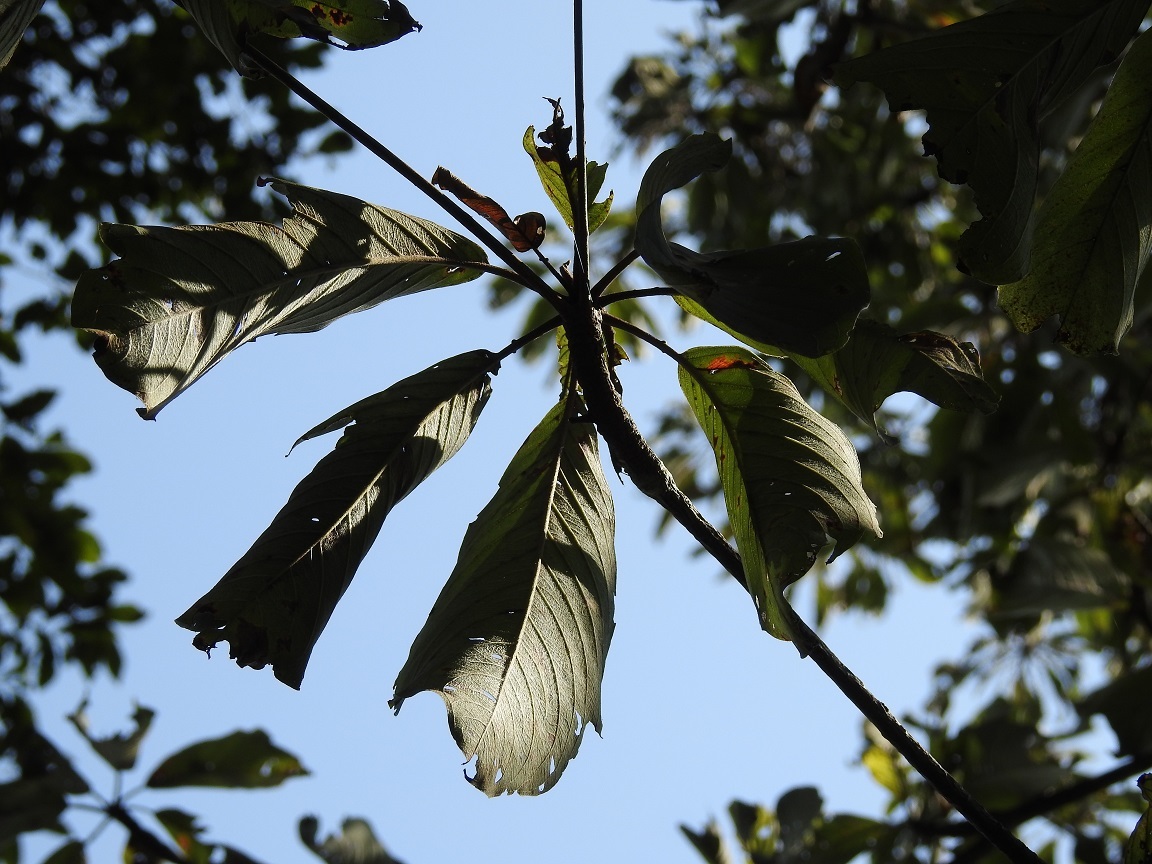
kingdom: Plantae
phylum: Tracheophyta
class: Magnoliopsida
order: Myrtales
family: Combretaceae
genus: Terminalia
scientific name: Terminalia macrostachya
